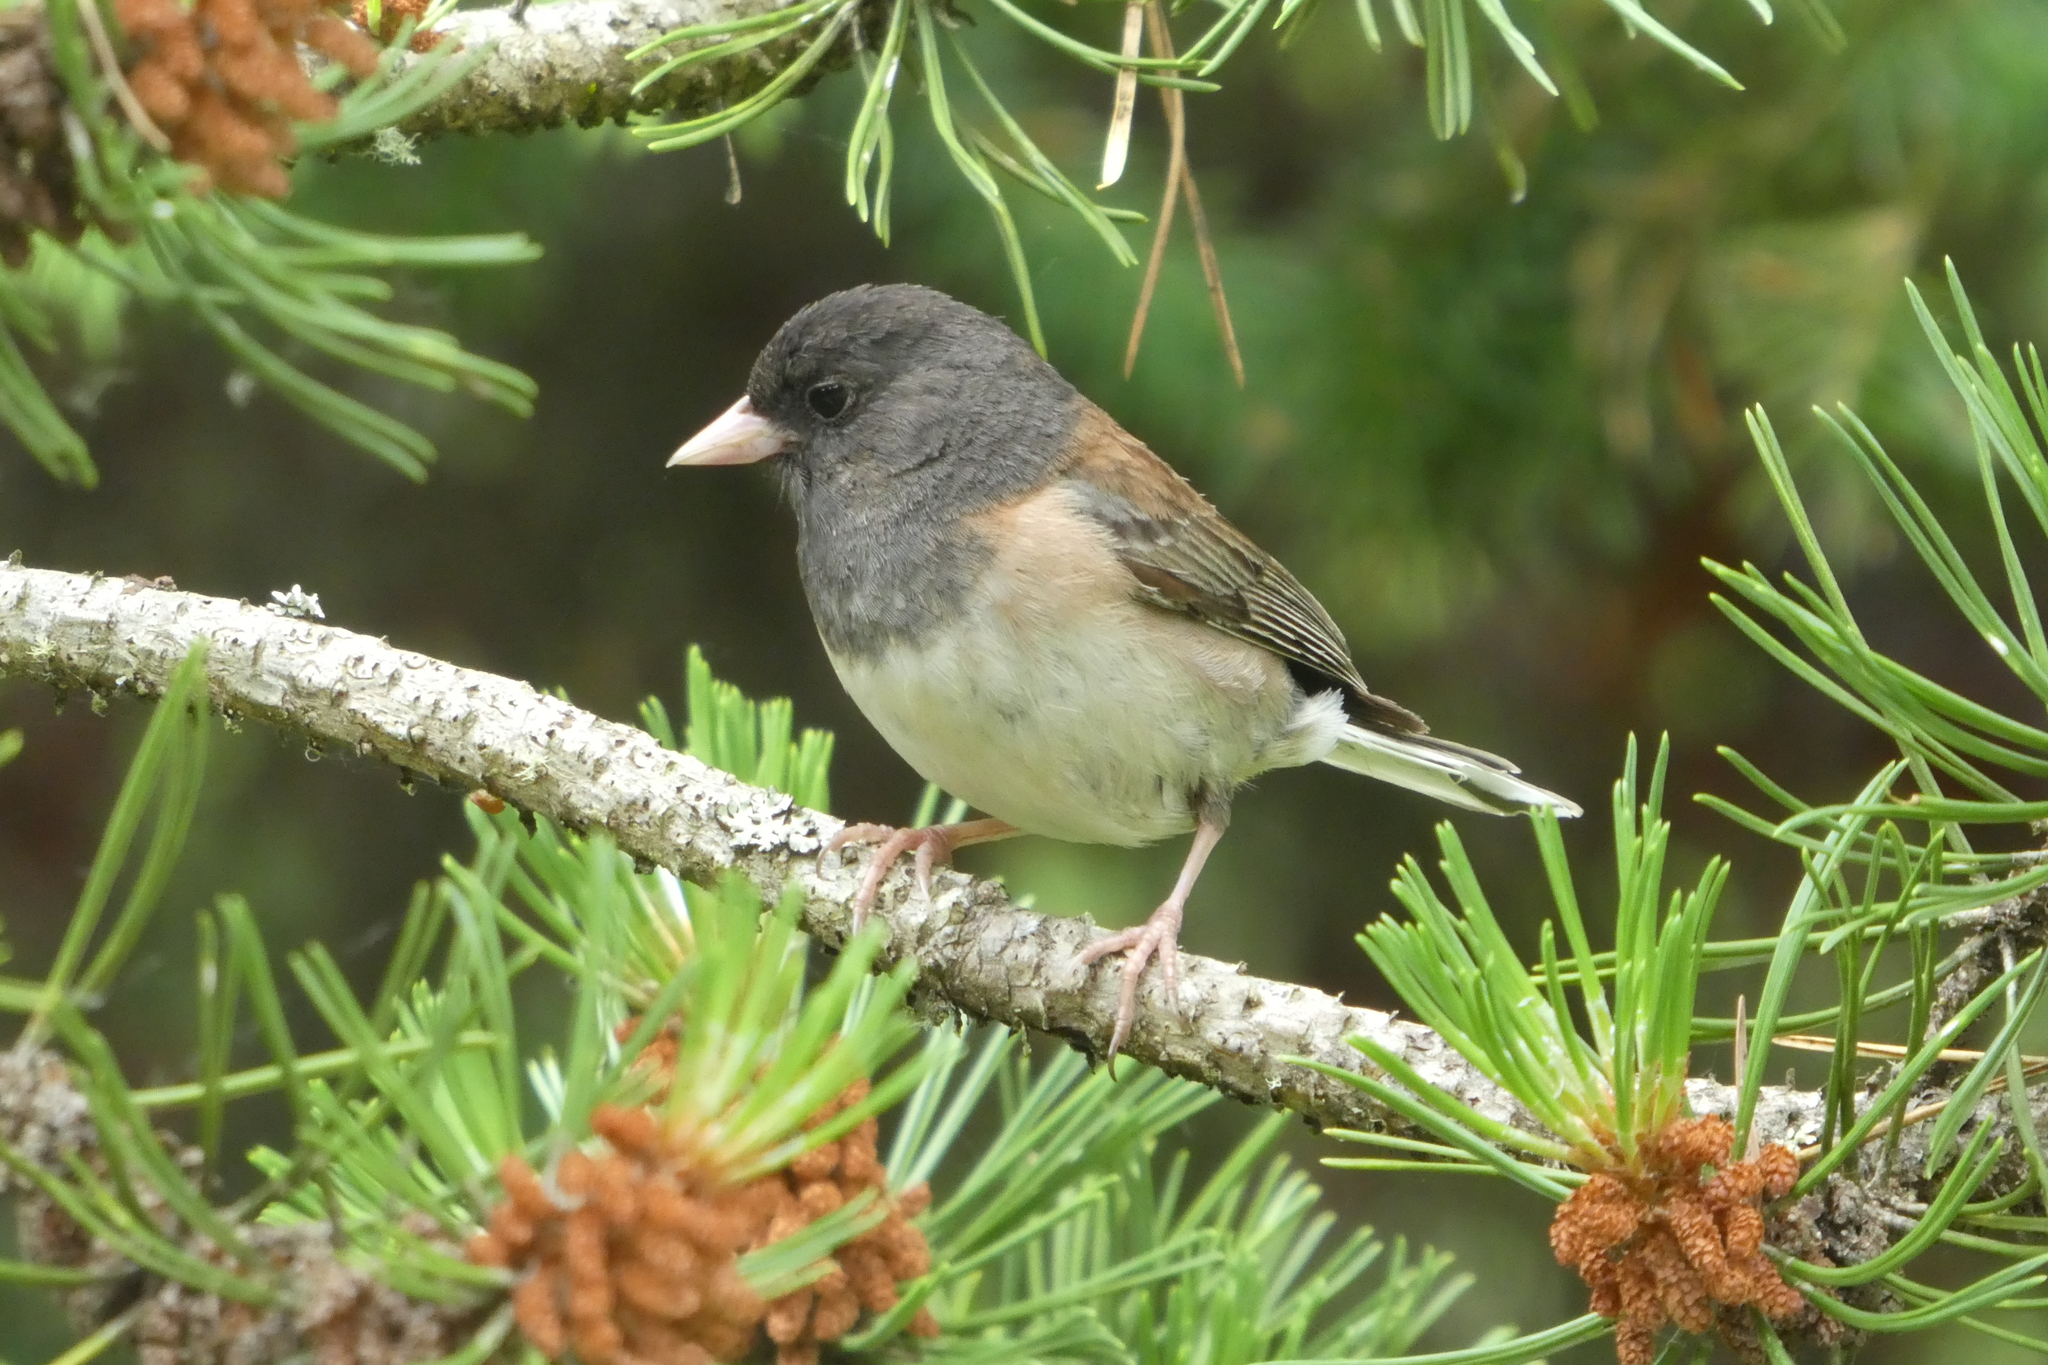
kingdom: Animalia
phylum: Chordata
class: Aves
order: Passeriformes
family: Passerellidae
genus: Junco
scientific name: Junco hyemalis
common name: Dark-eyed junco
